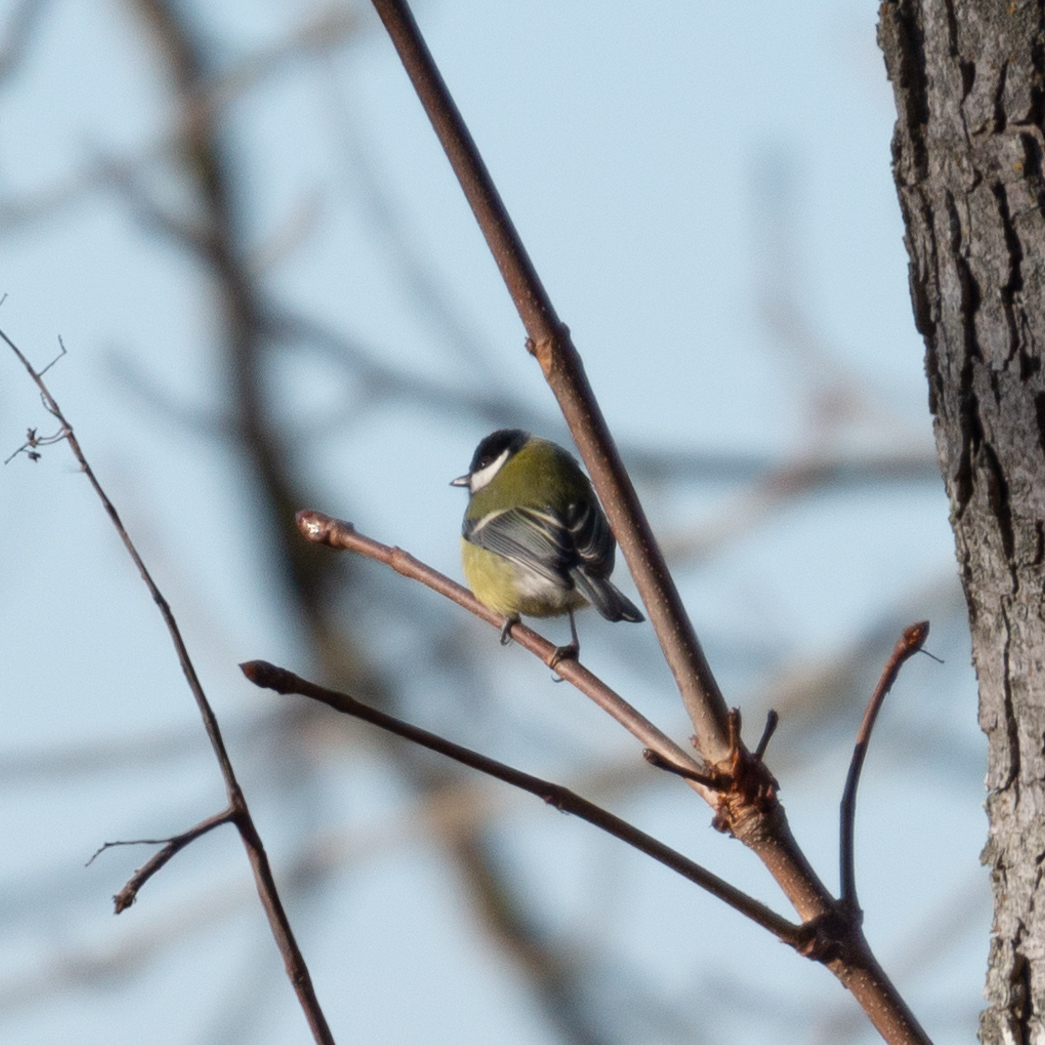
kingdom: Animalia
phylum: Chordata
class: Aves
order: Passeriformes
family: Paridae
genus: Parus
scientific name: Parus major
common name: Great tit
